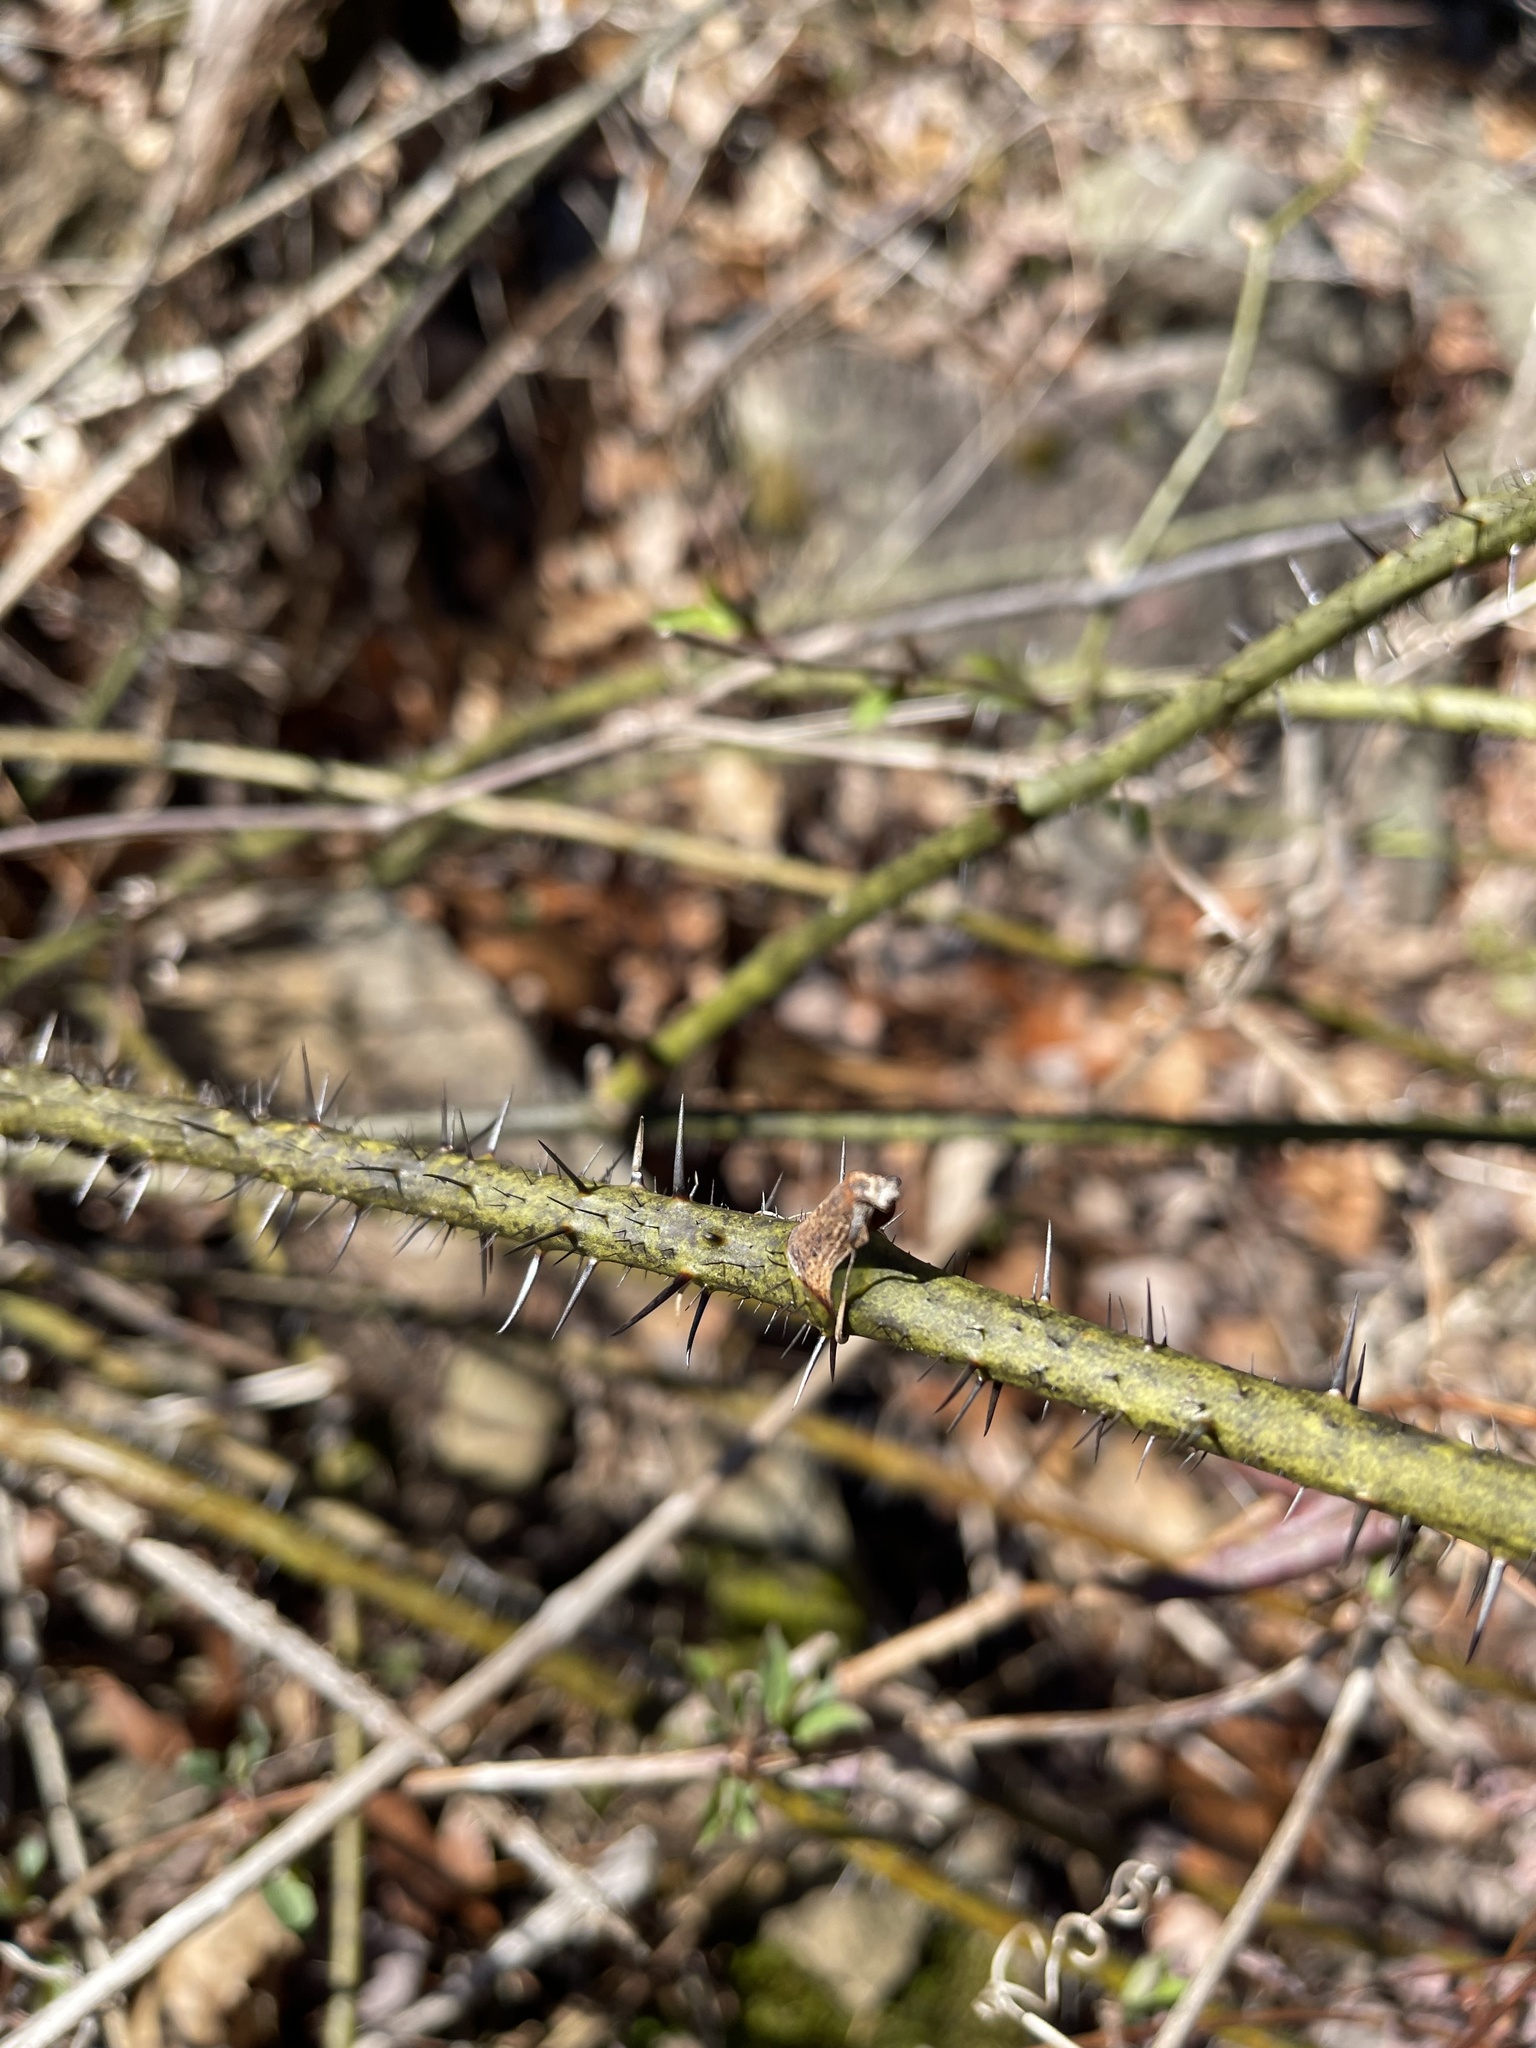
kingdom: Plantae
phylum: Tracheophyta
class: Liliopsida
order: Liliales
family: Smilacaceae
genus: Smilax
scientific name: Smilax tamnoides
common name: Hellfetter
